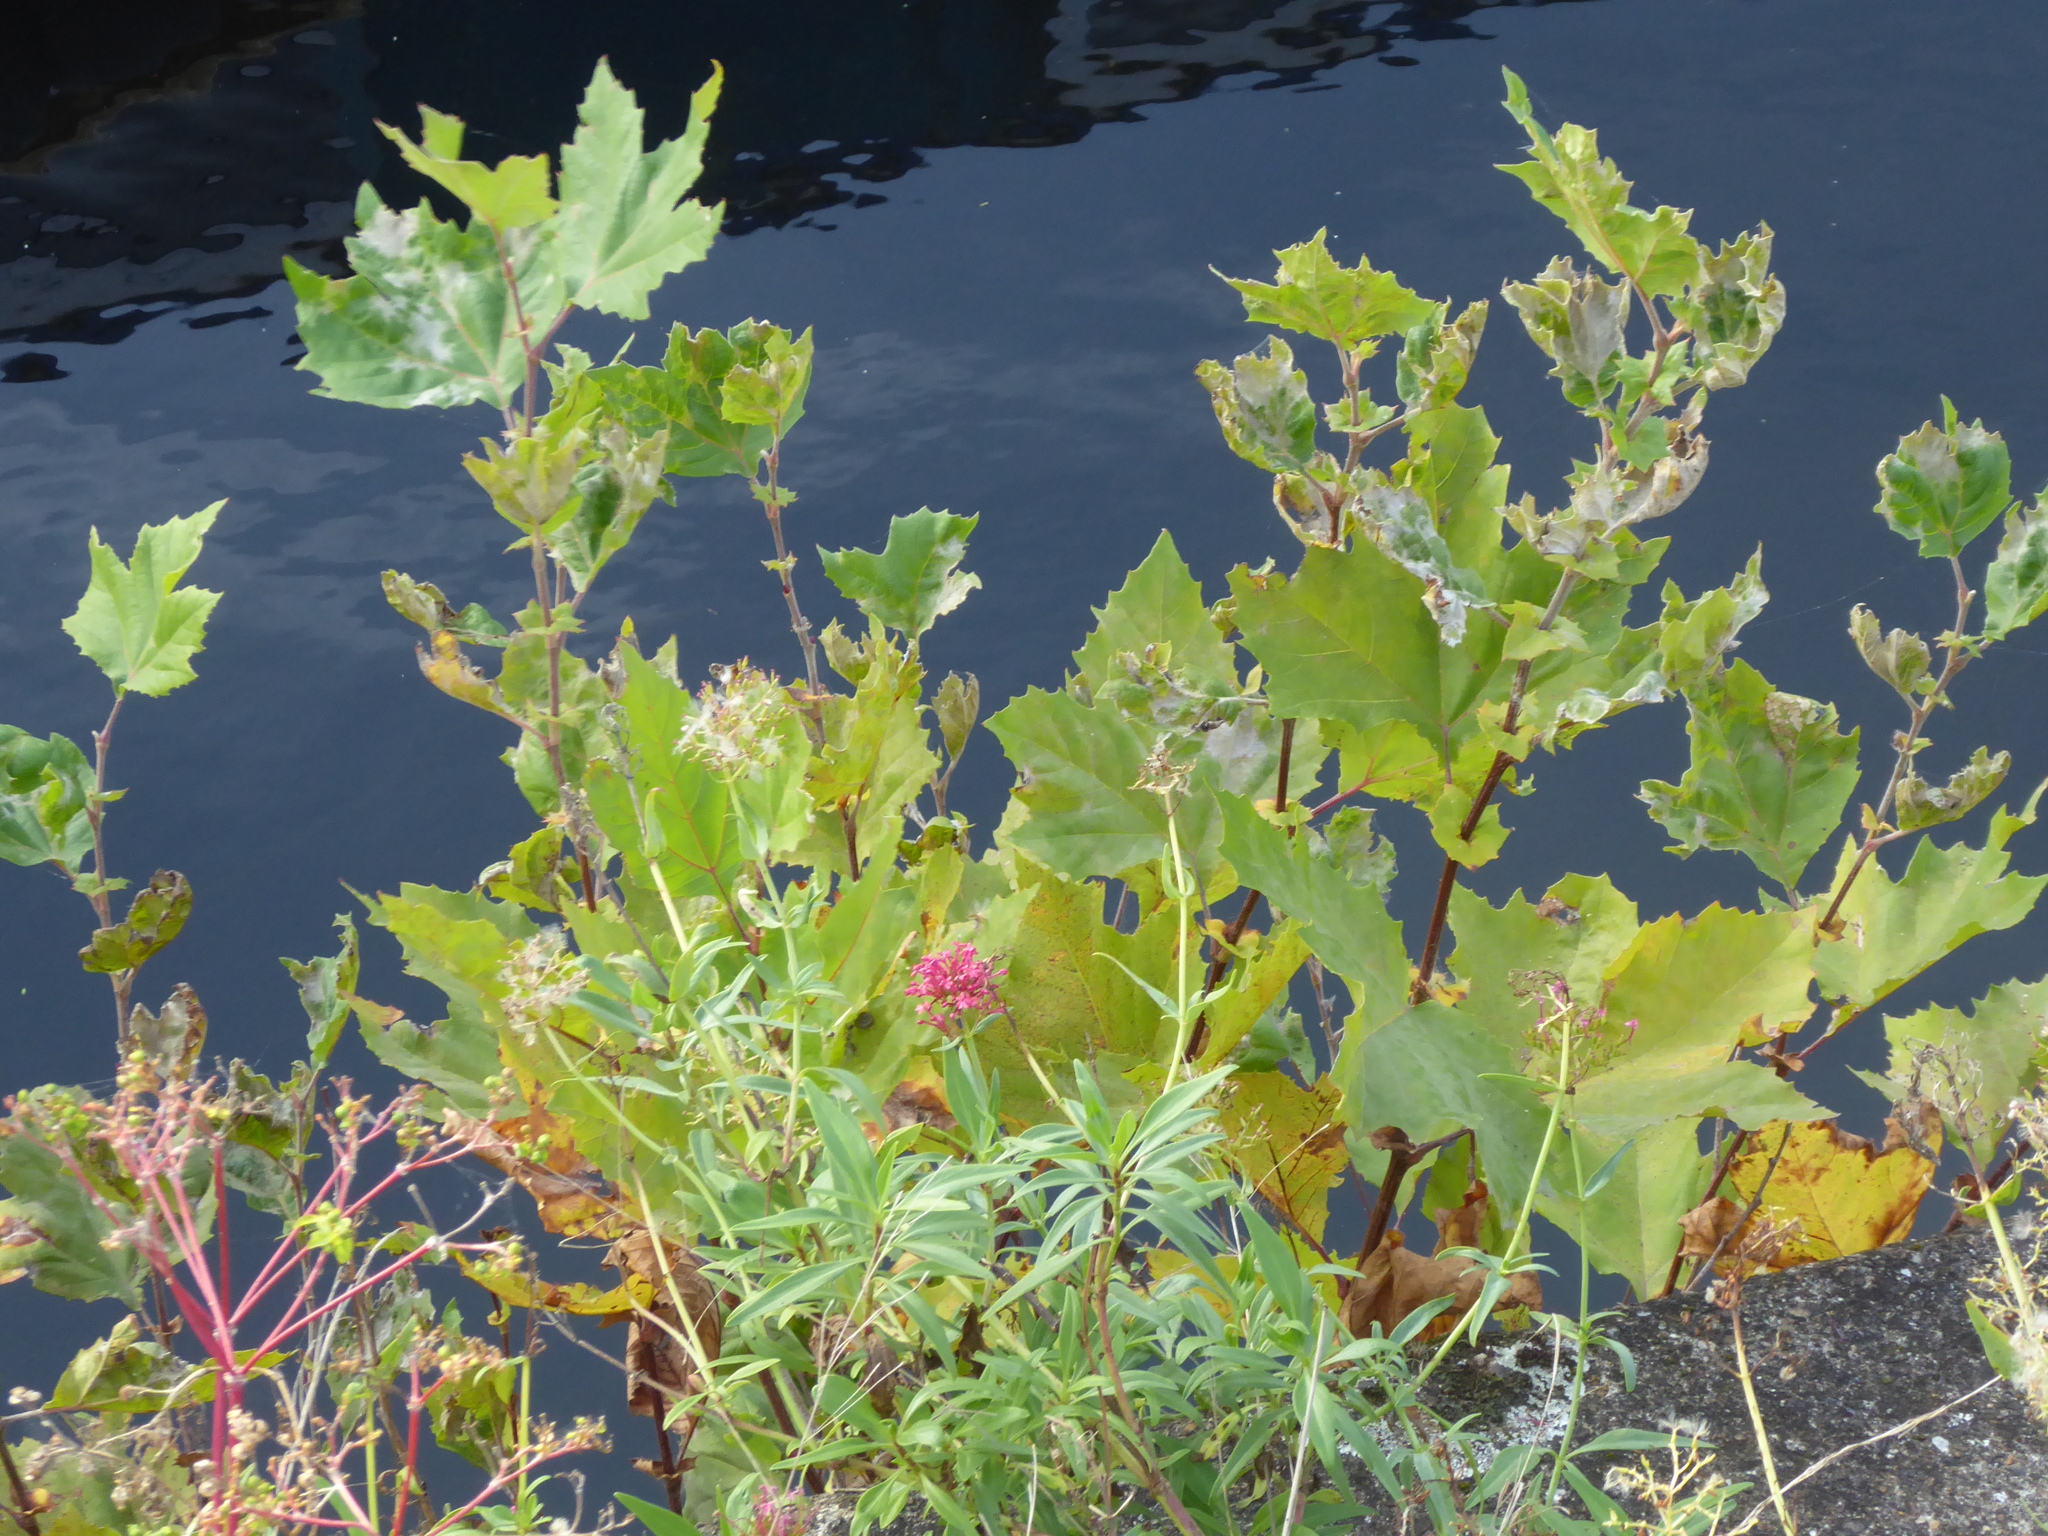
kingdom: Fungi
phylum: Ascomycota
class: Leotiomycetes
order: Helotiales
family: Erysiphaceae
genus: Erysiphe
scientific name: Erysiphe platani
